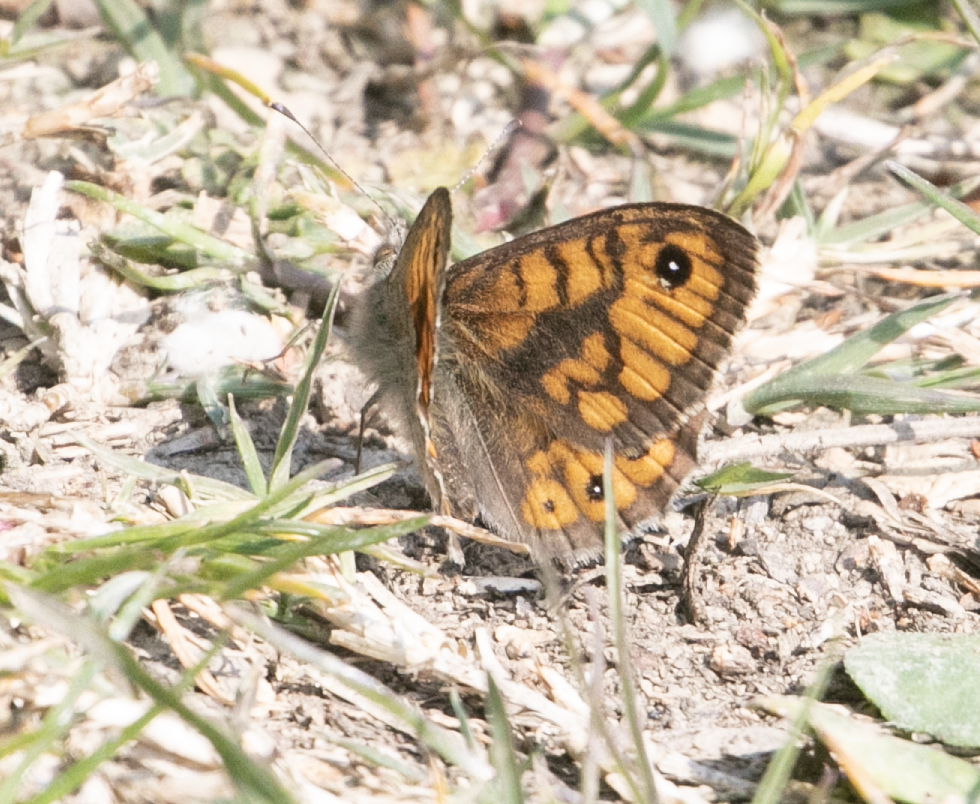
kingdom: Animalia
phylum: Arthropoda
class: Insecta
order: Lepidoptera
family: Nymphalidae
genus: Pararge
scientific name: Pararge Lasiommata megera
